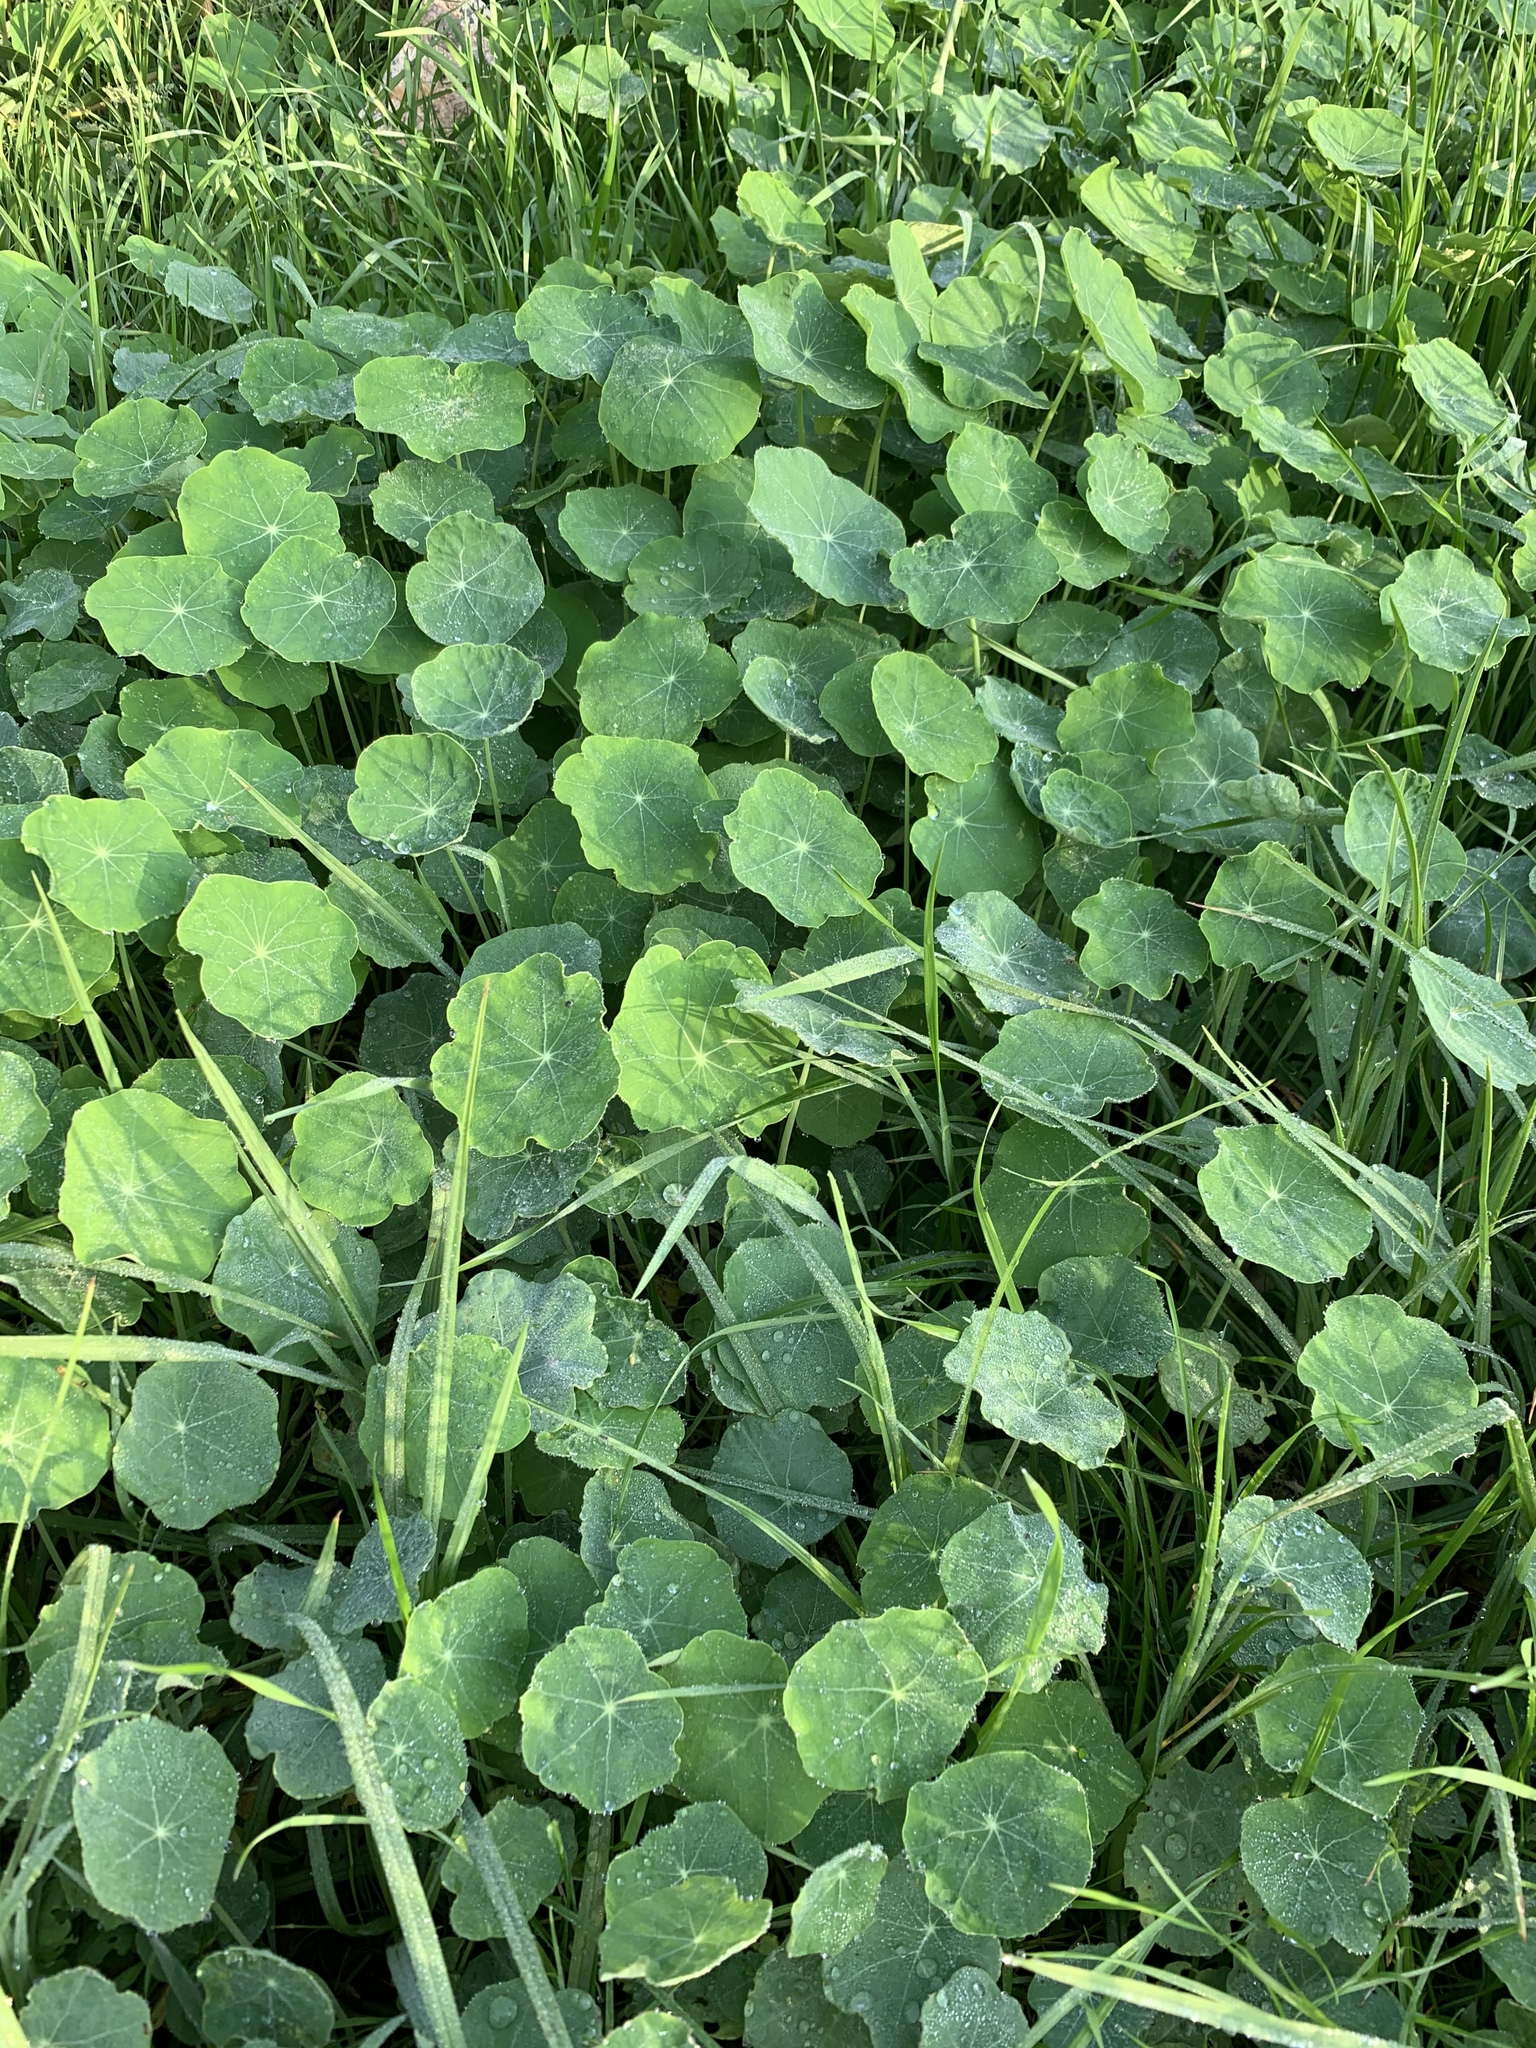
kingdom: Plantae
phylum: Tracheophyta
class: Magnoliopsida
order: Brassicales
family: Tropaeolaceae
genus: Tropaeolum
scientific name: Tropaeolum majus
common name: Nasturtium
